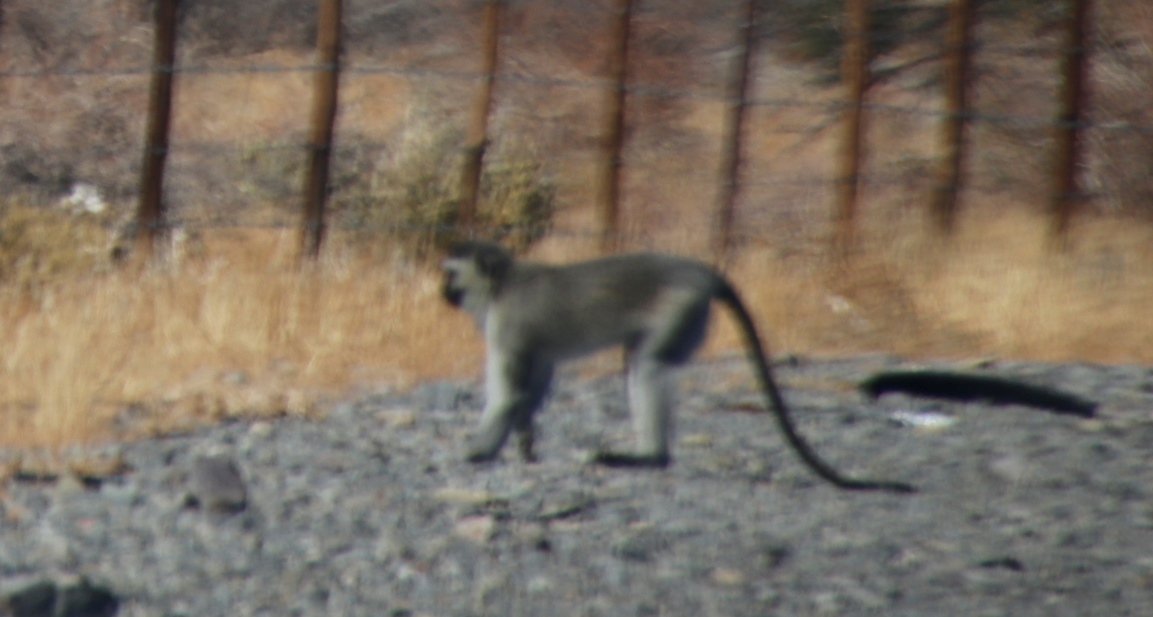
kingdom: Animalia
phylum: Chordata
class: Mammalia
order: Primates
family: Cercopithecidae
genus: Chlorocebus
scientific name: Chlorocebus pygerythrus
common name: Vervet monkey
